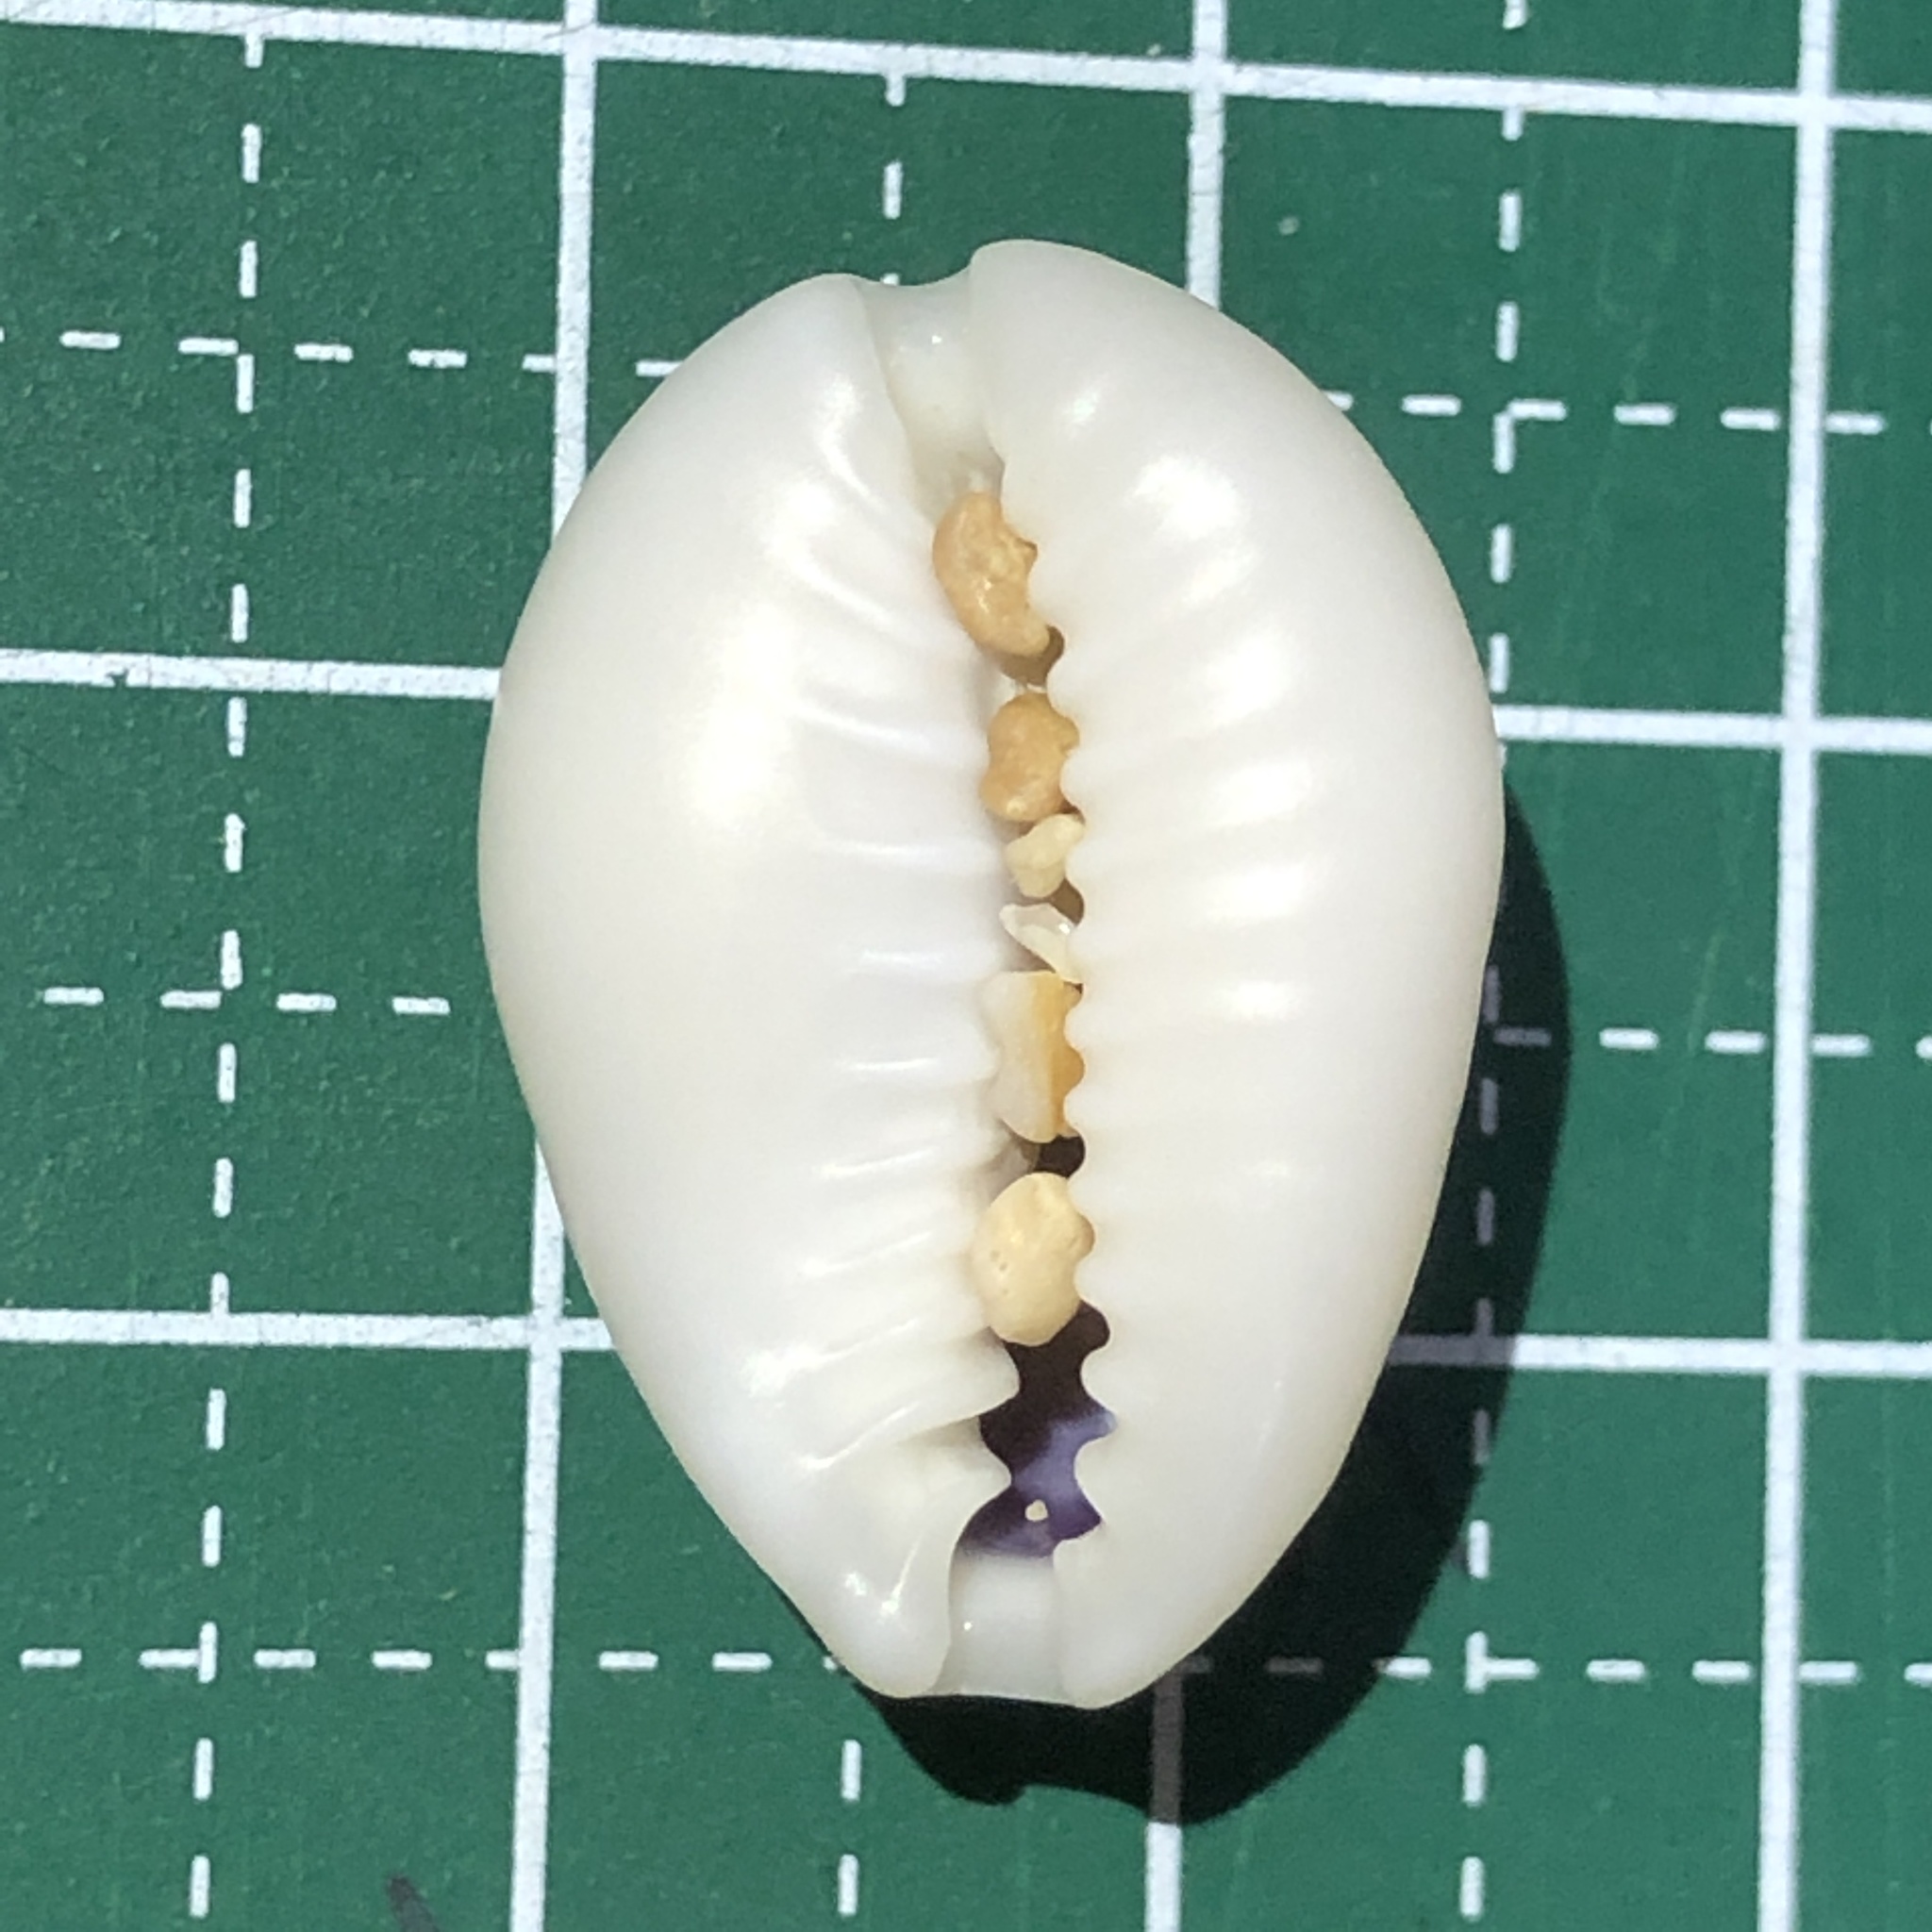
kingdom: Animalia
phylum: Mollusca
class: Gastropoda
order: Littorinimorpha
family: Cypraeidae
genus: Monetaria
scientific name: Monetaria annulus
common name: Ring cowrie
